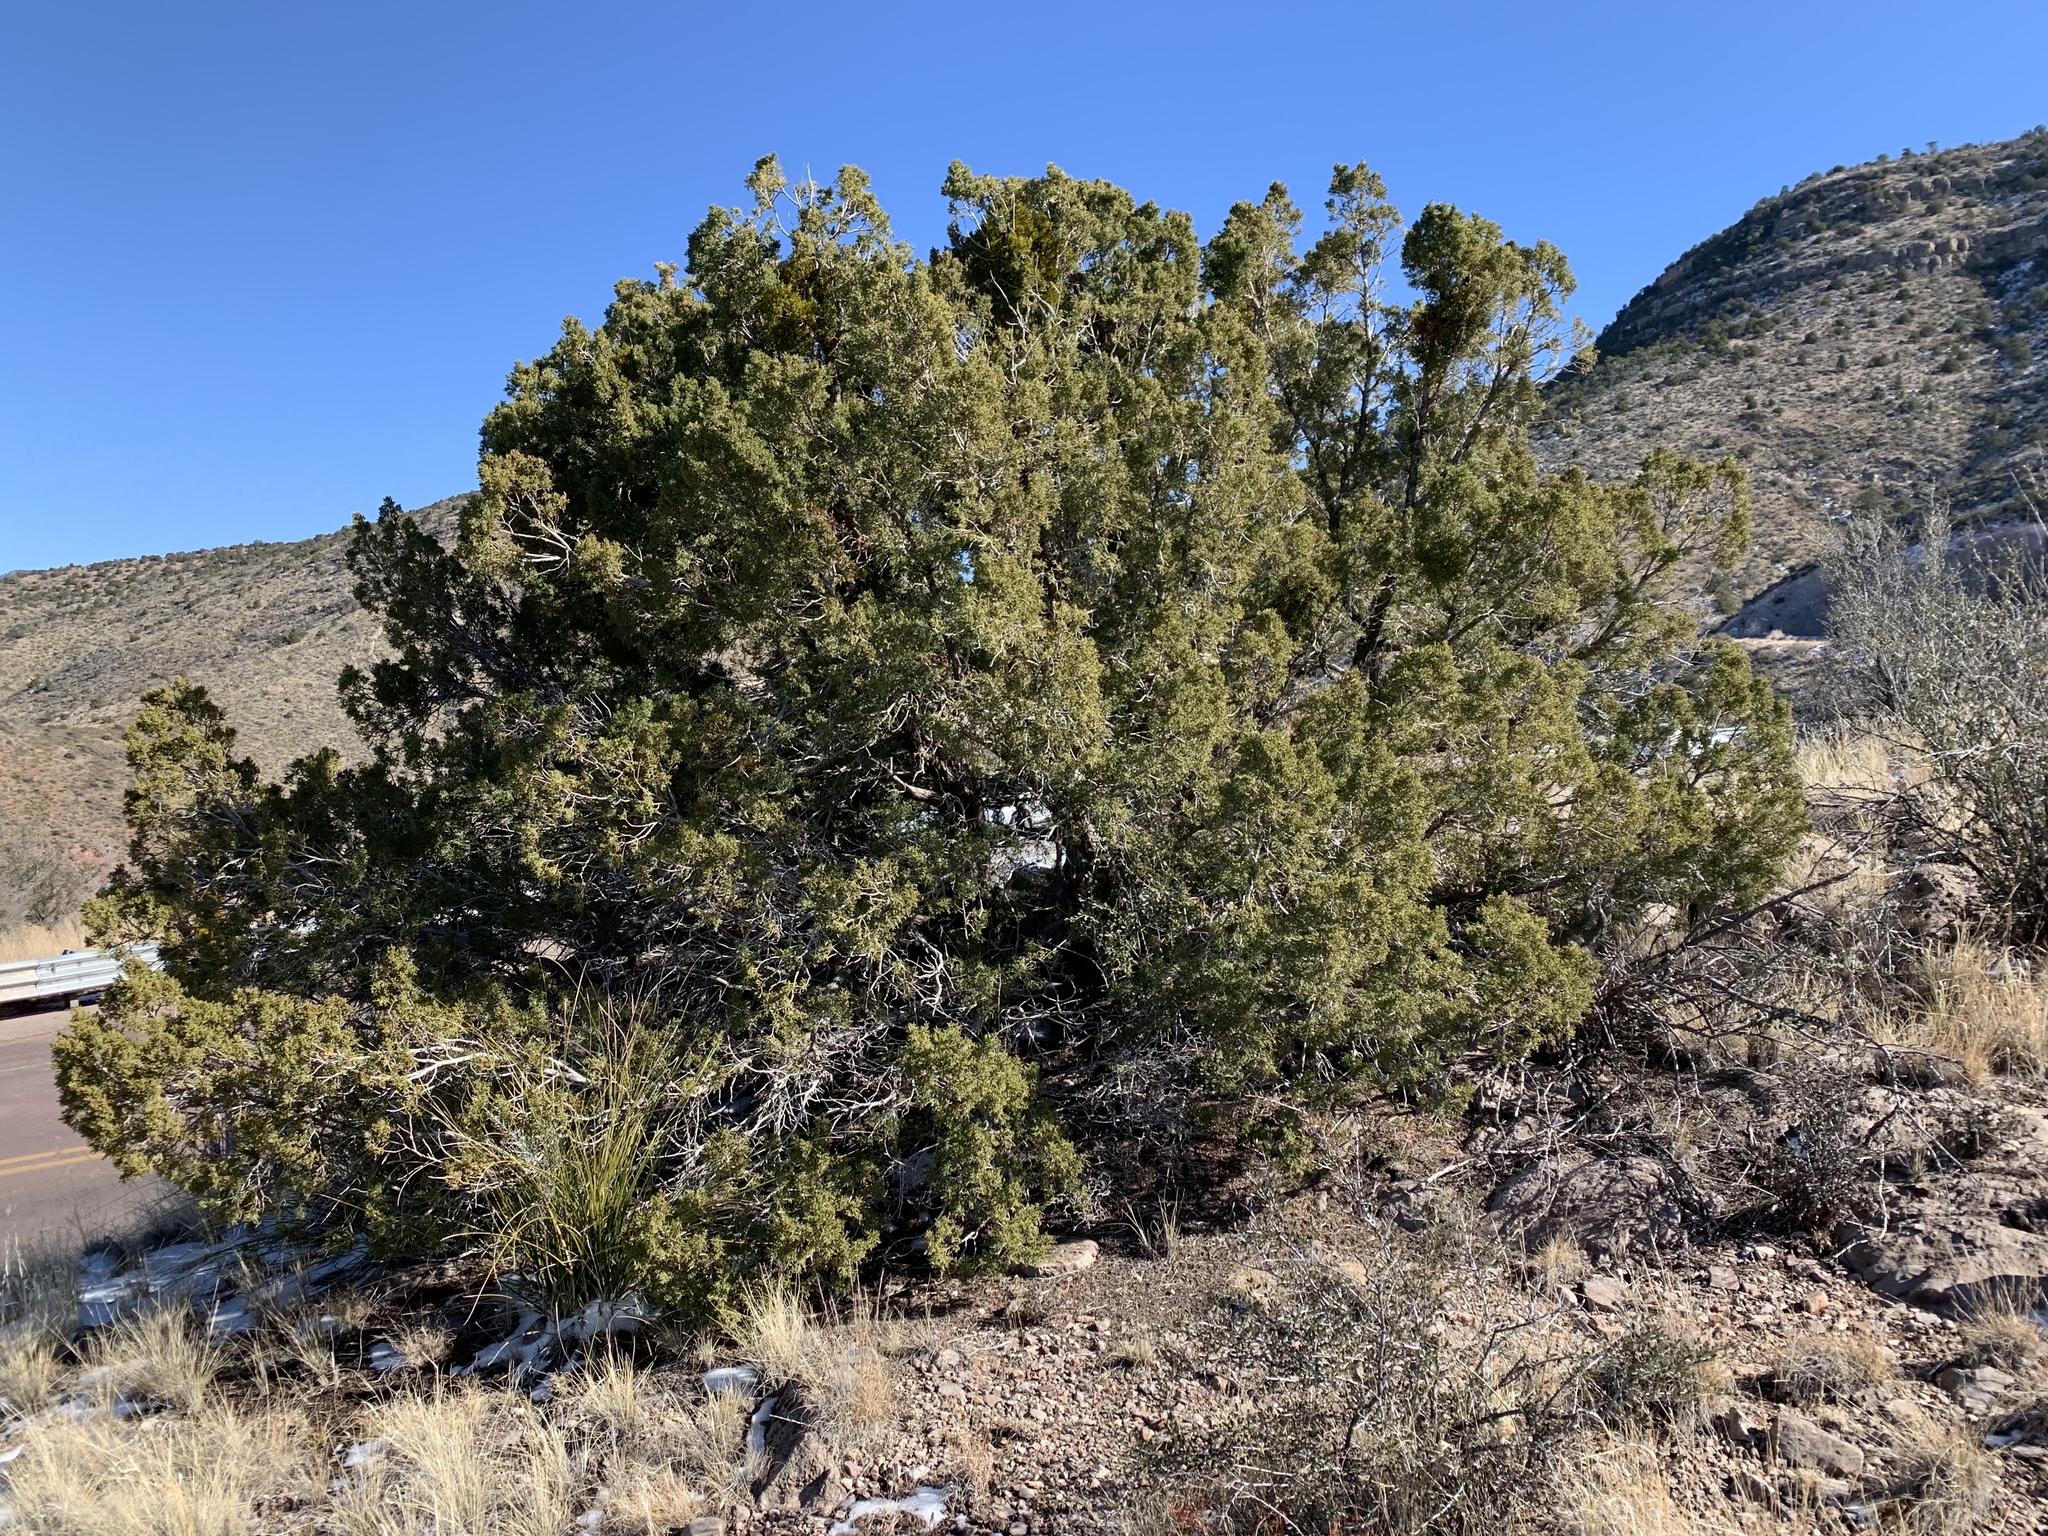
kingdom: Plantae
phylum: Tracheophyta
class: Pinopsida
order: Pinales
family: Cupressaceae
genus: Juniperus
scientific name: Juniperus monosperma
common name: One-seed juniper
